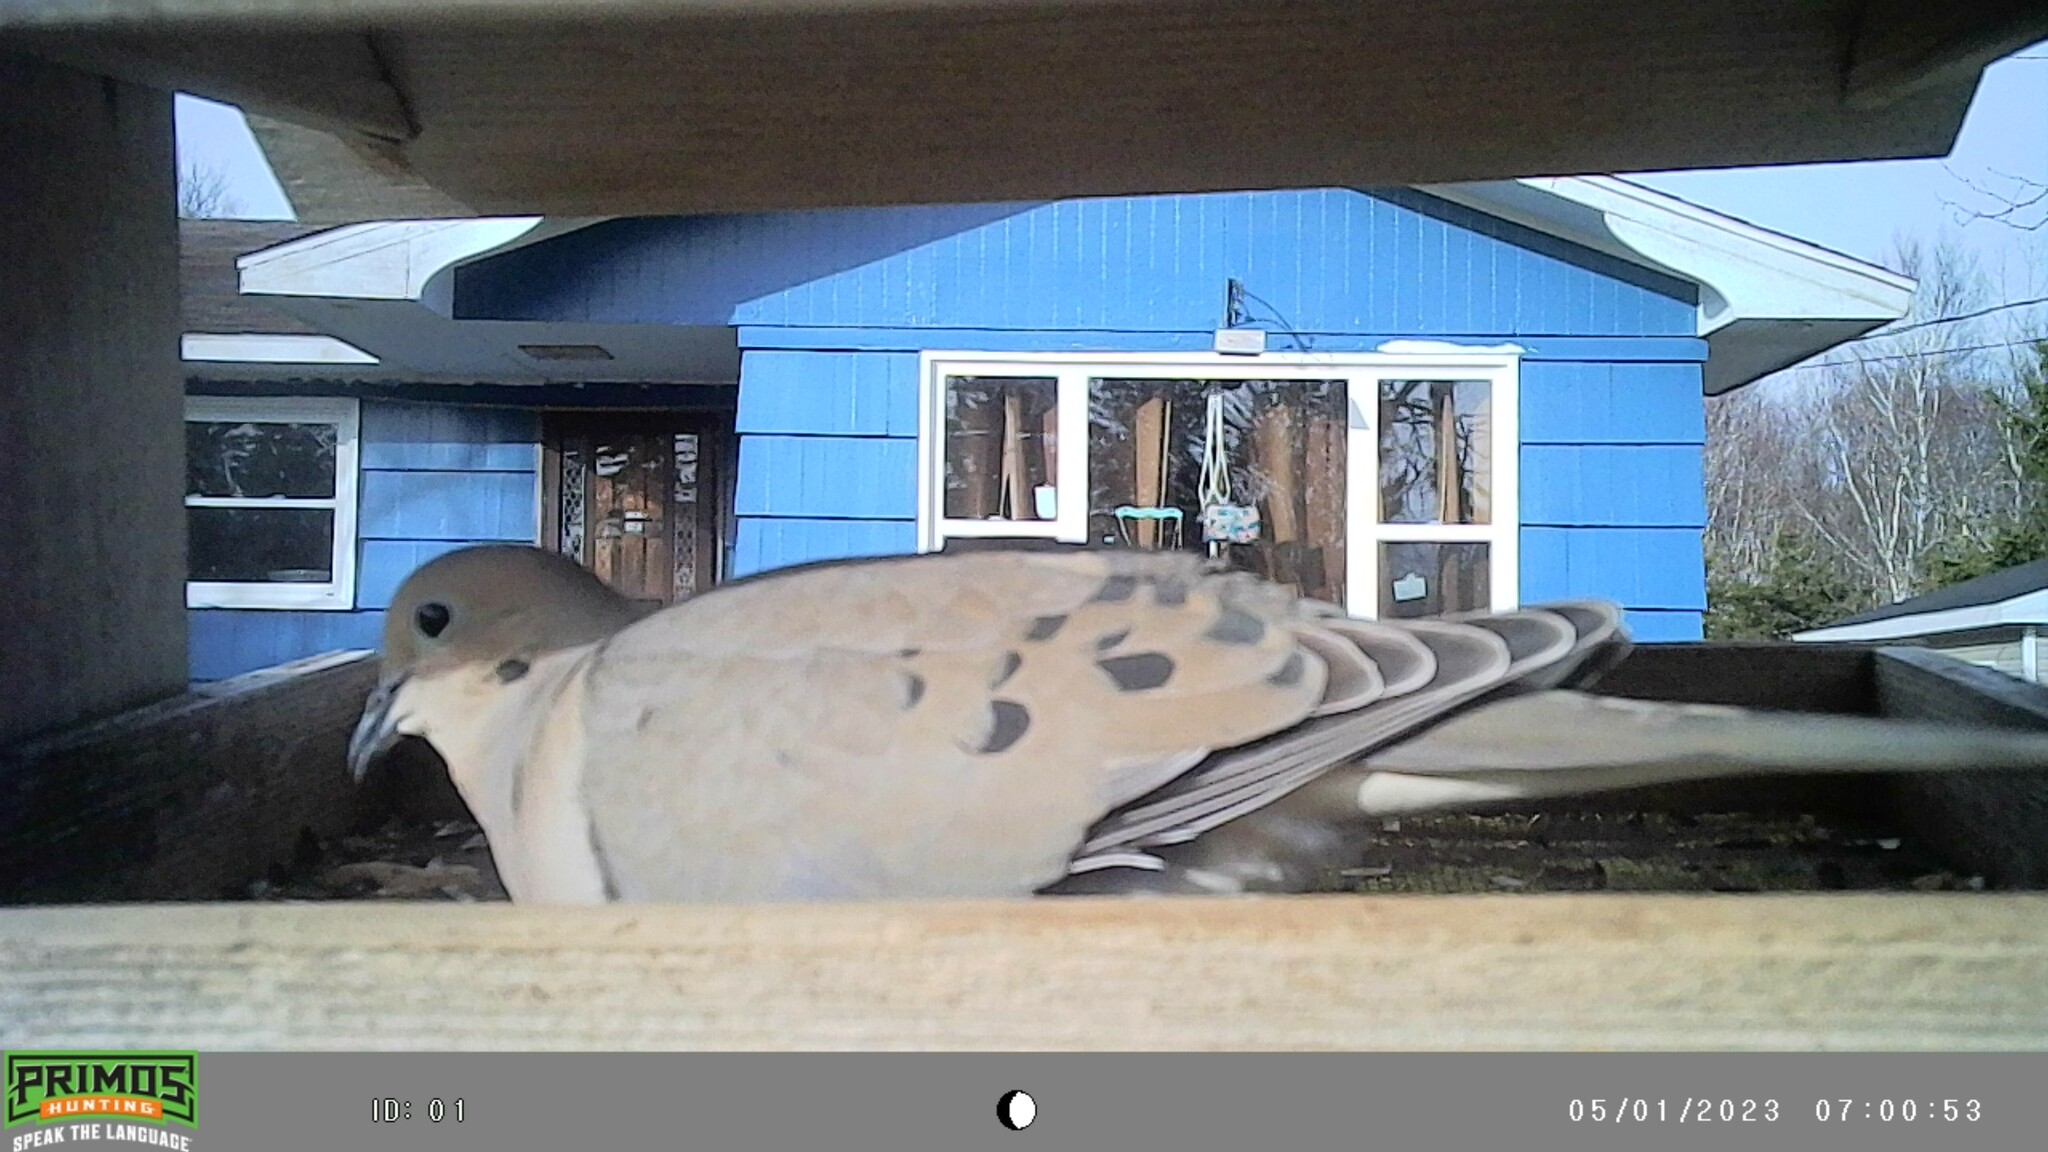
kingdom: Animalia
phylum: Chordata
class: Aves
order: Columbiformes
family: Columbidae
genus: Zenaida
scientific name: Zenaida macroura
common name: Mourning dove
